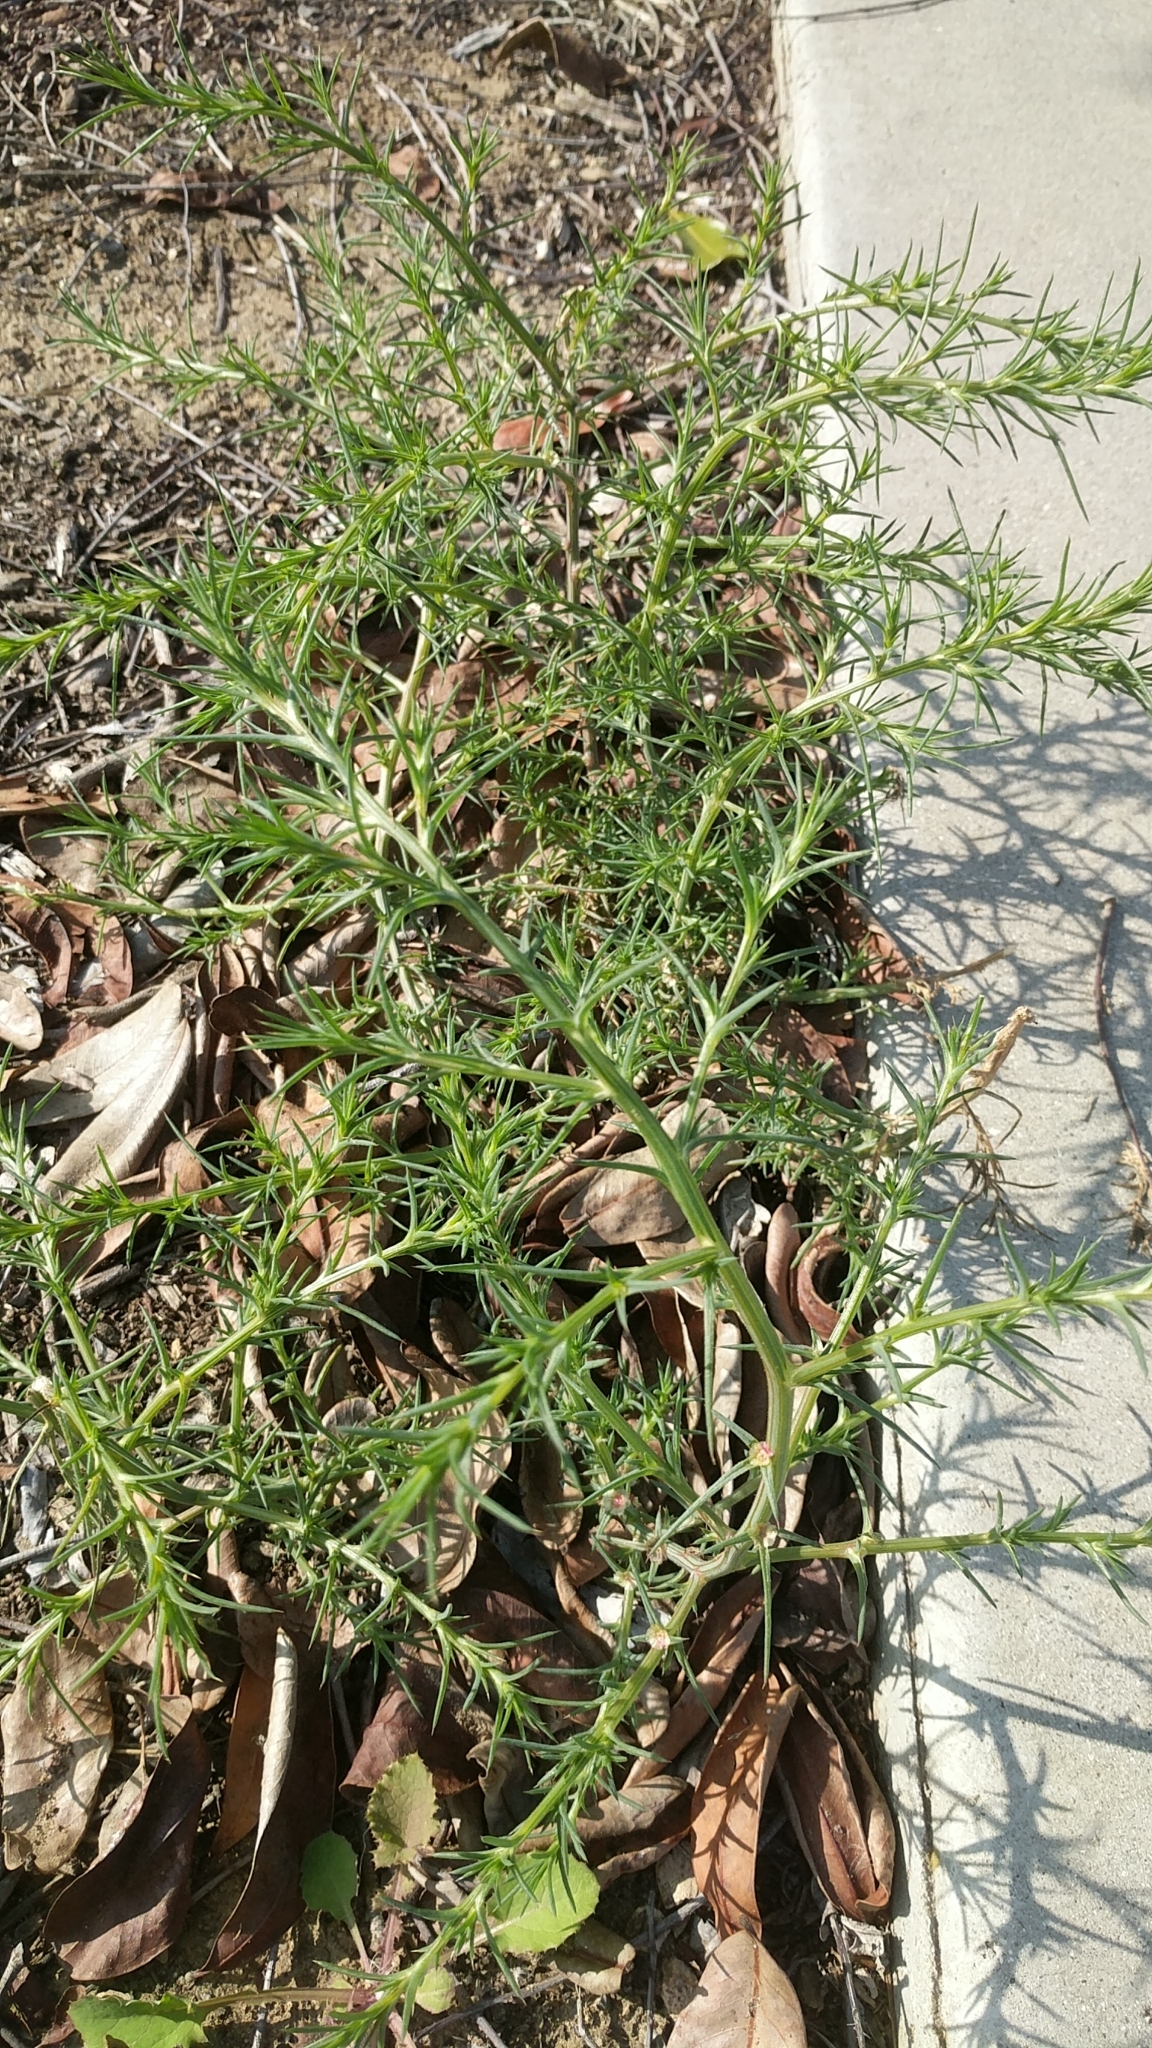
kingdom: Plantae
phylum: Tracheophyta
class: Magnoliopsida
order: Caryophyllales
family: Amaranthaceae
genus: Salsola
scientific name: Salsola
